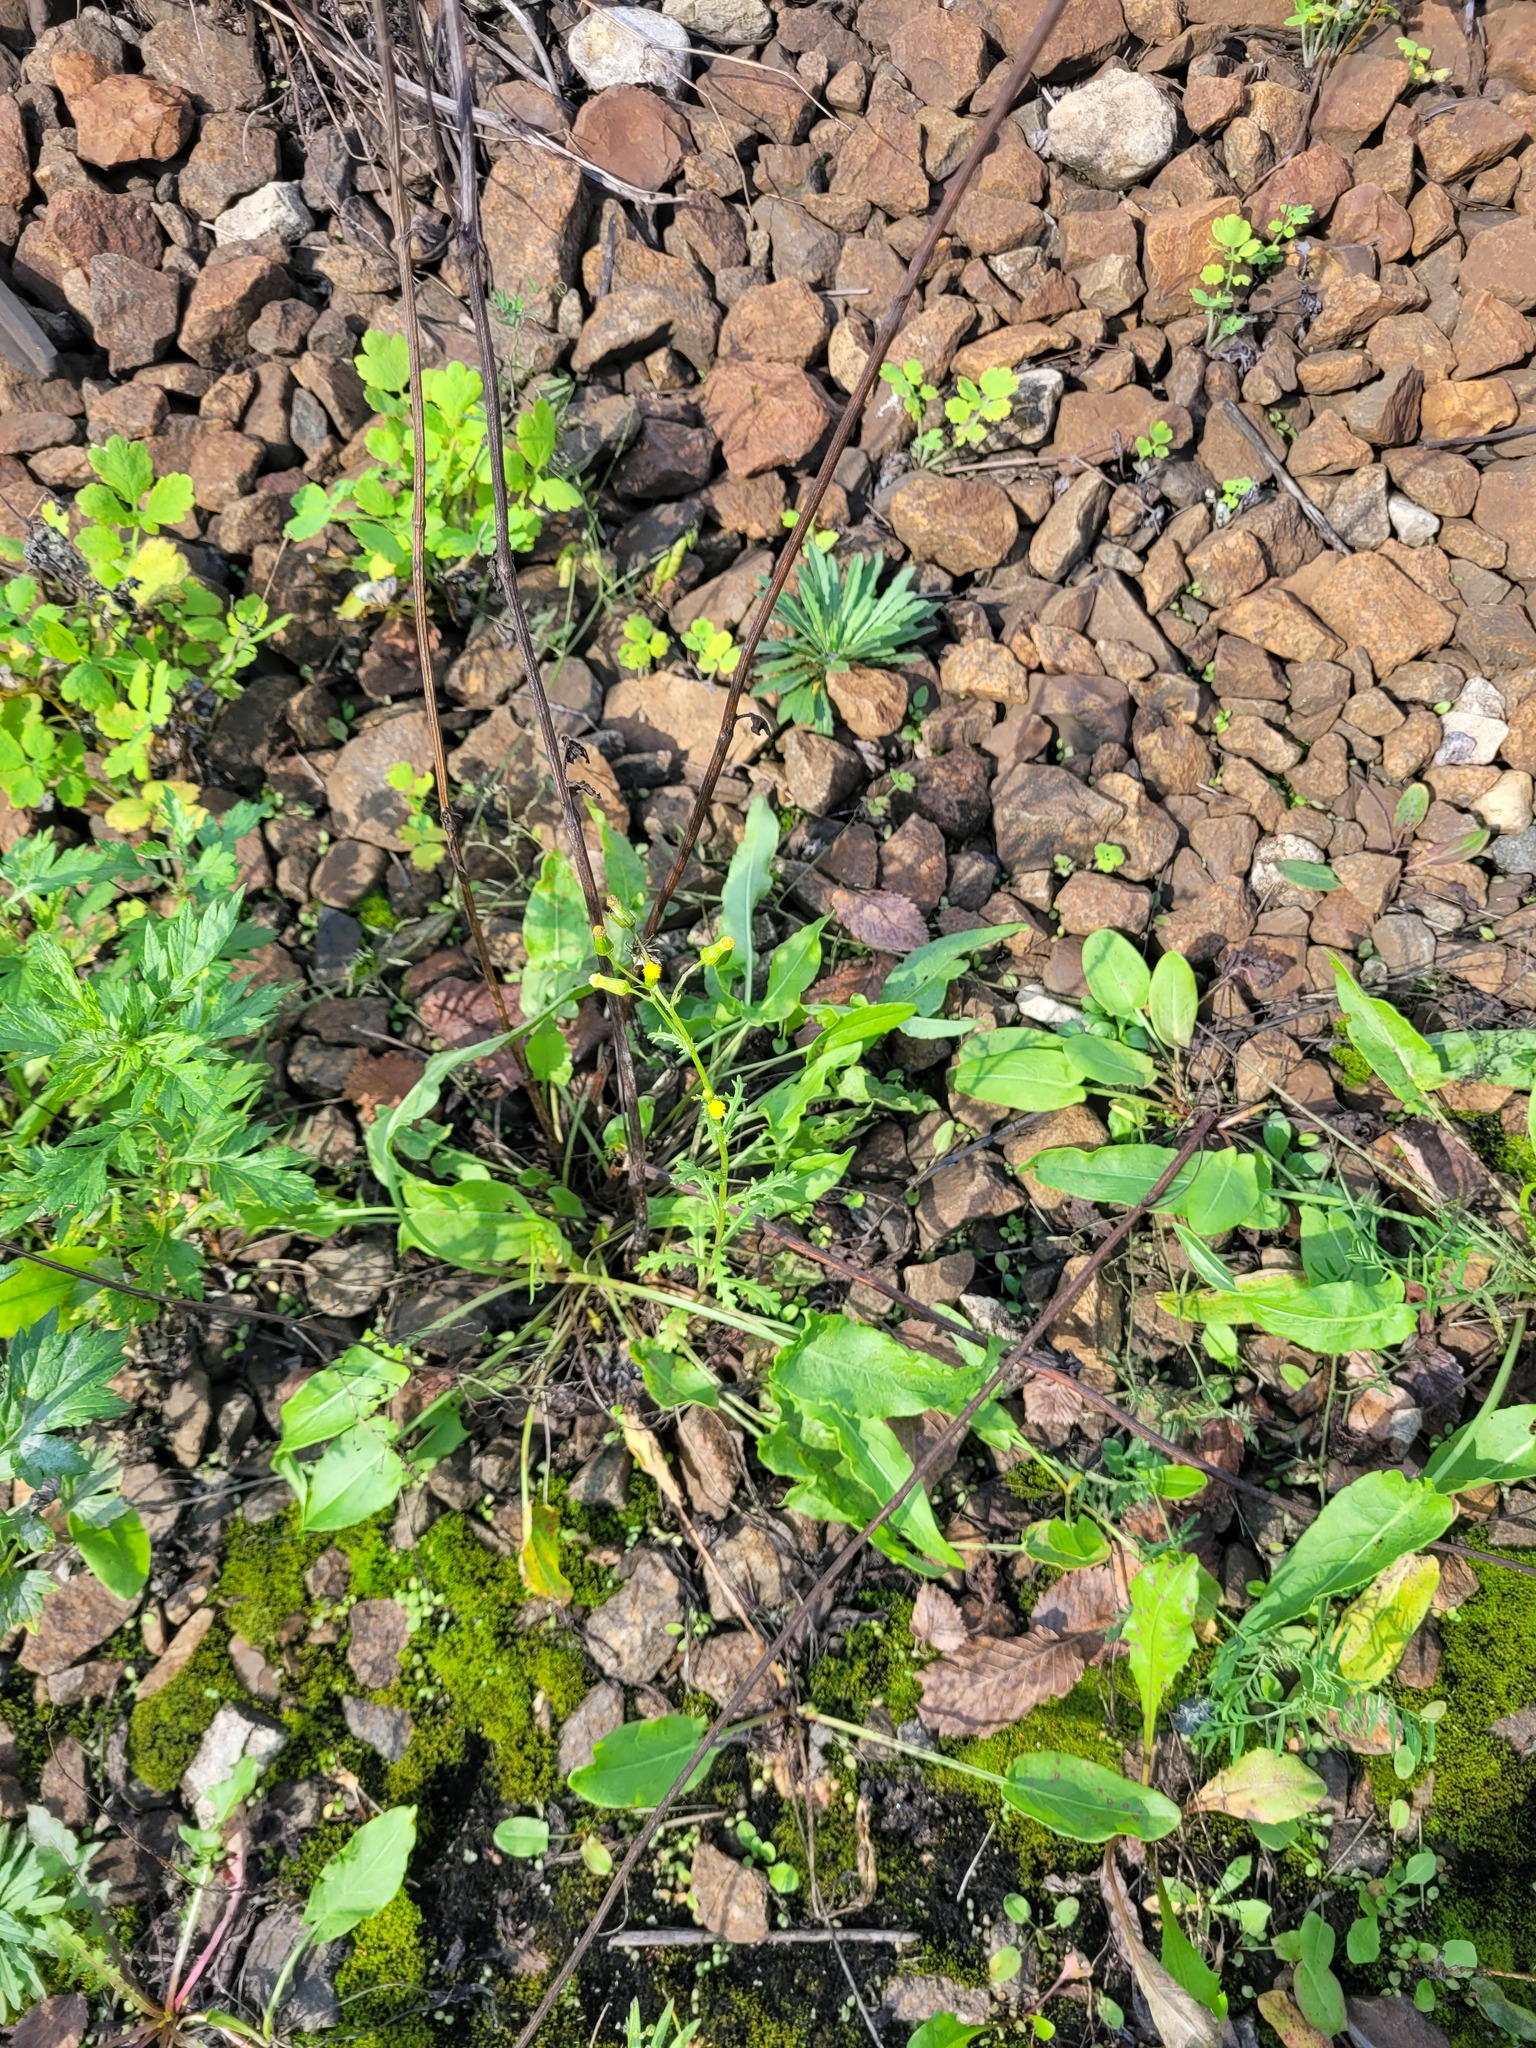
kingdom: Plantae
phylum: Tracheophyta
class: Magnoliopsida
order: Asterales
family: Asteraceae
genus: Senecio
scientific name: Senecio vulgaris
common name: Old-man-in-the-spring
